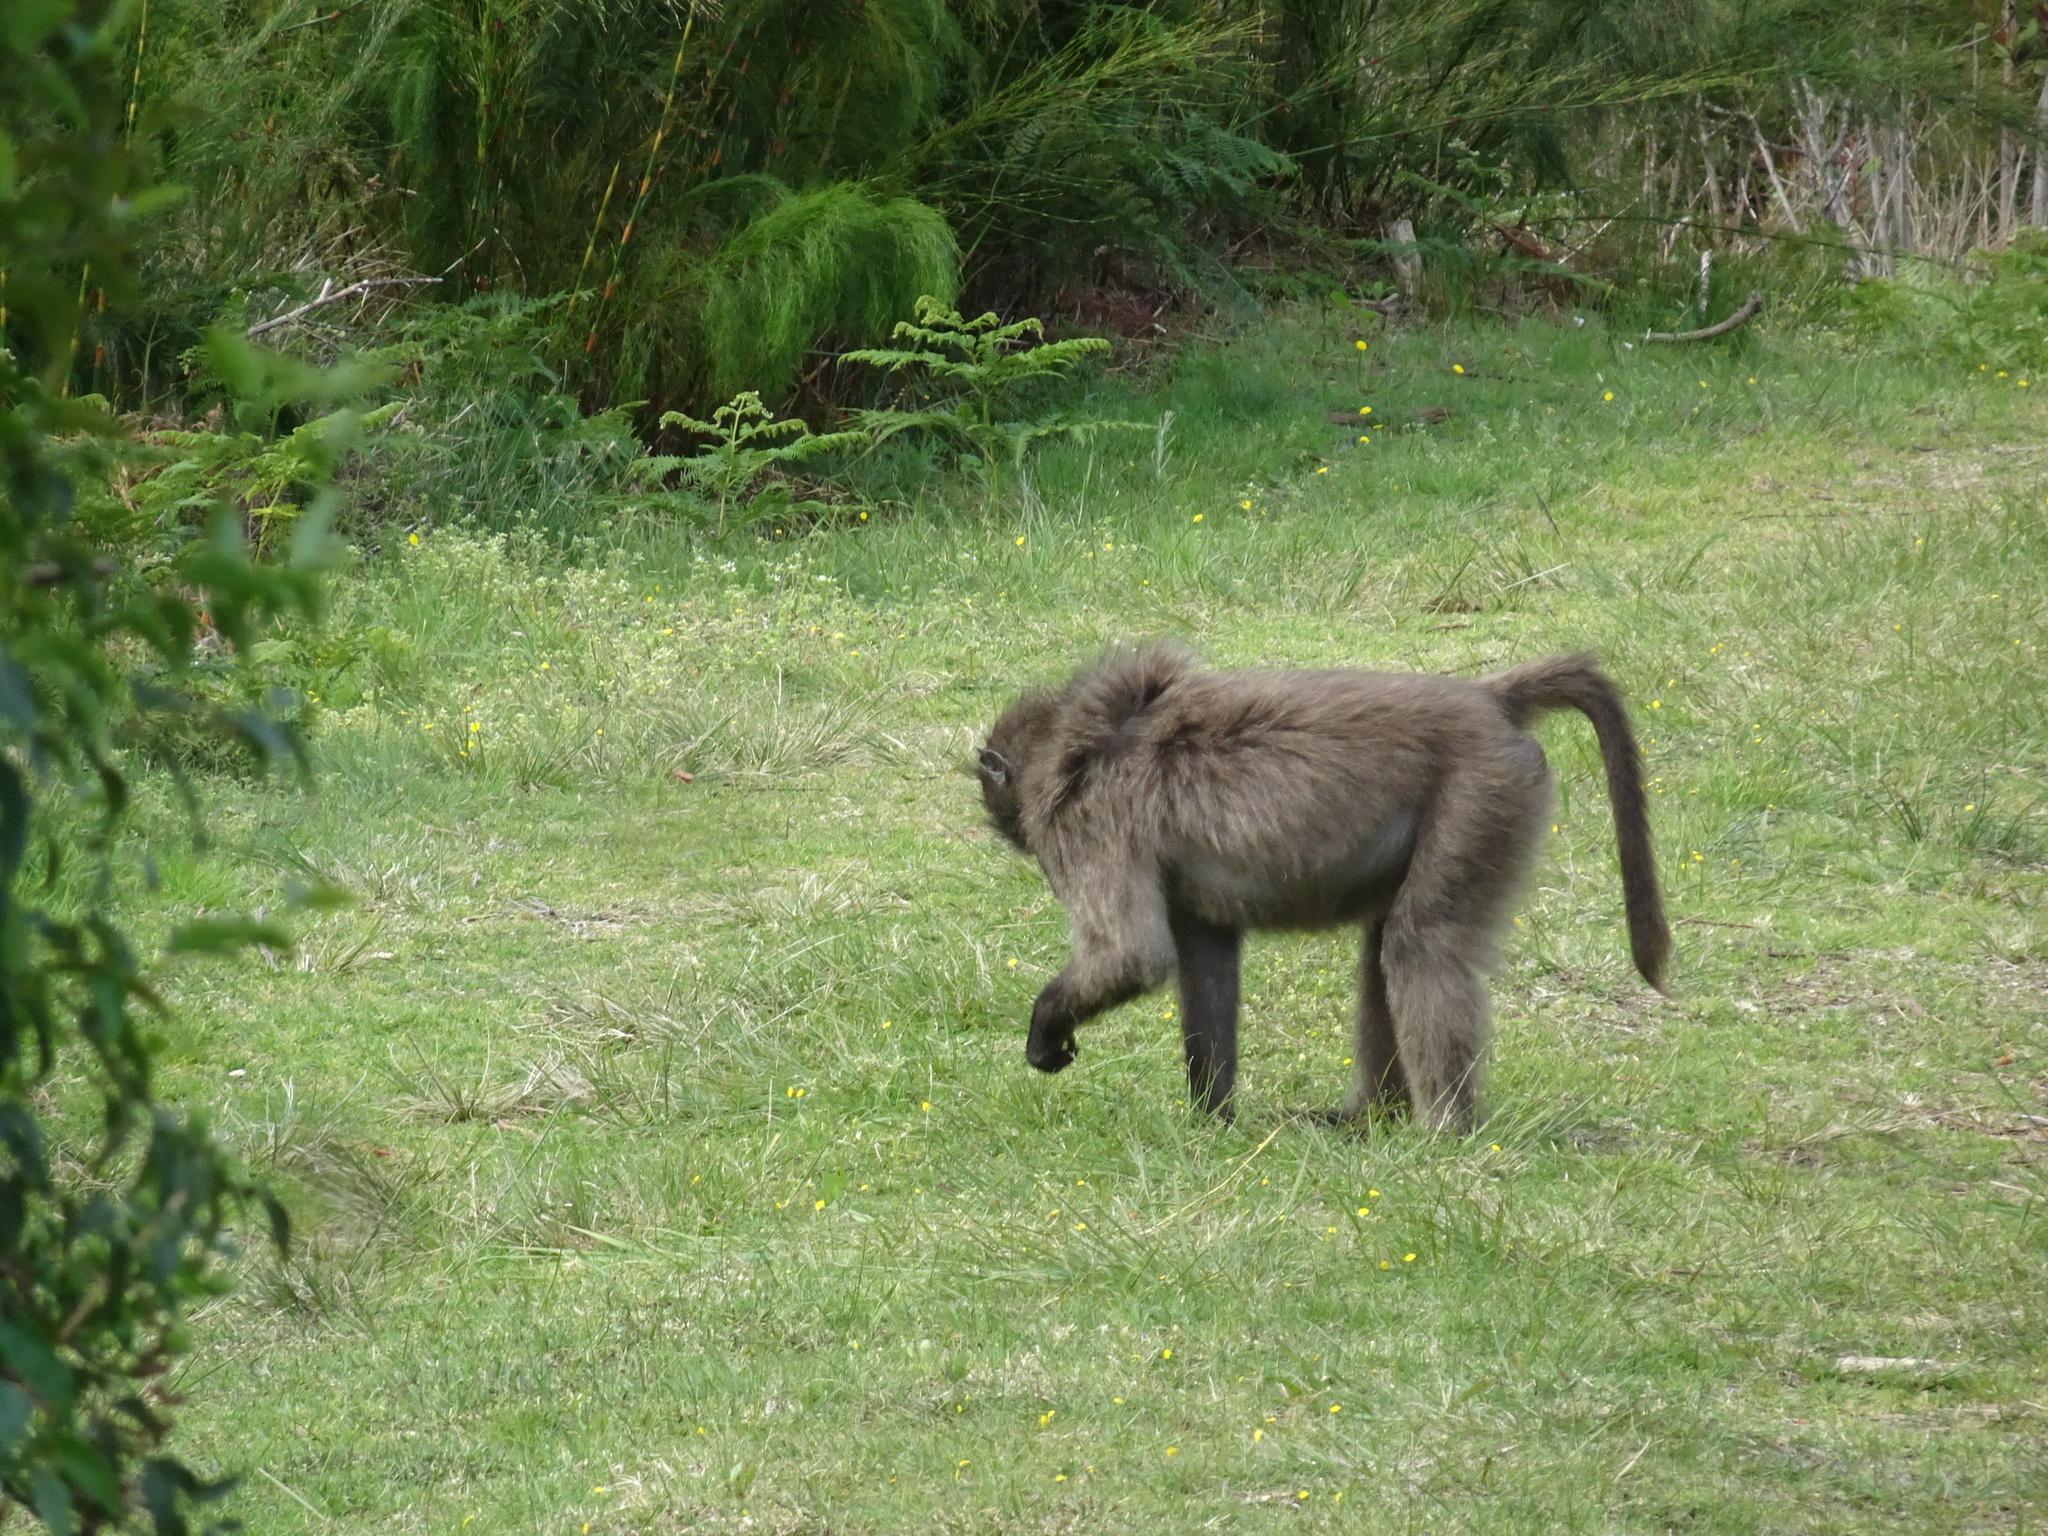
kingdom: Animalia
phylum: Chordata
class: Mammalia
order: Primates
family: Cercopithecidae
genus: Papio
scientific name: Papio ursinus
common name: Chacma baboon
